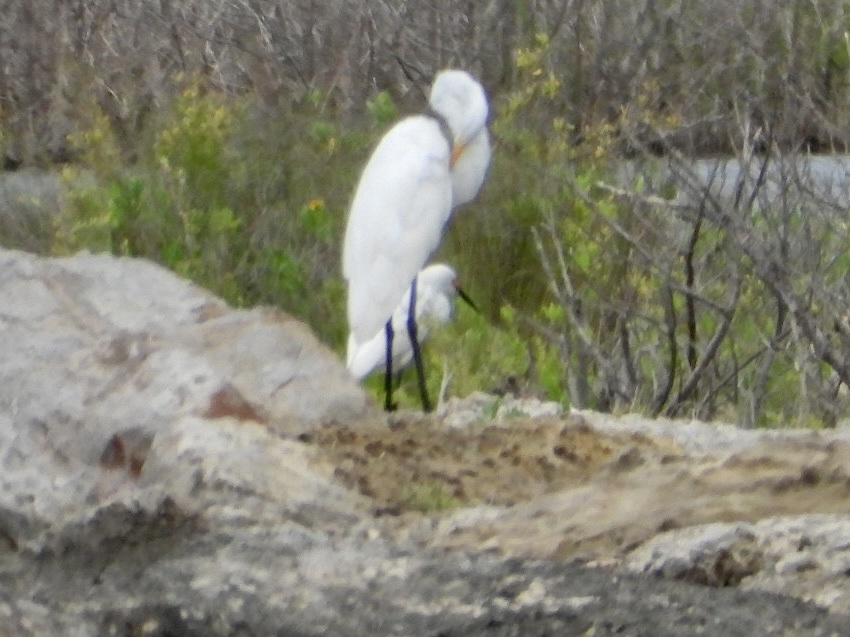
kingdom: Animalia
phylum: Chordata
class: Aves
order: Pelecaniformes
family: Ardeidae
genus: Ardea
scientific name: Ardea alba
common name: Great egret
